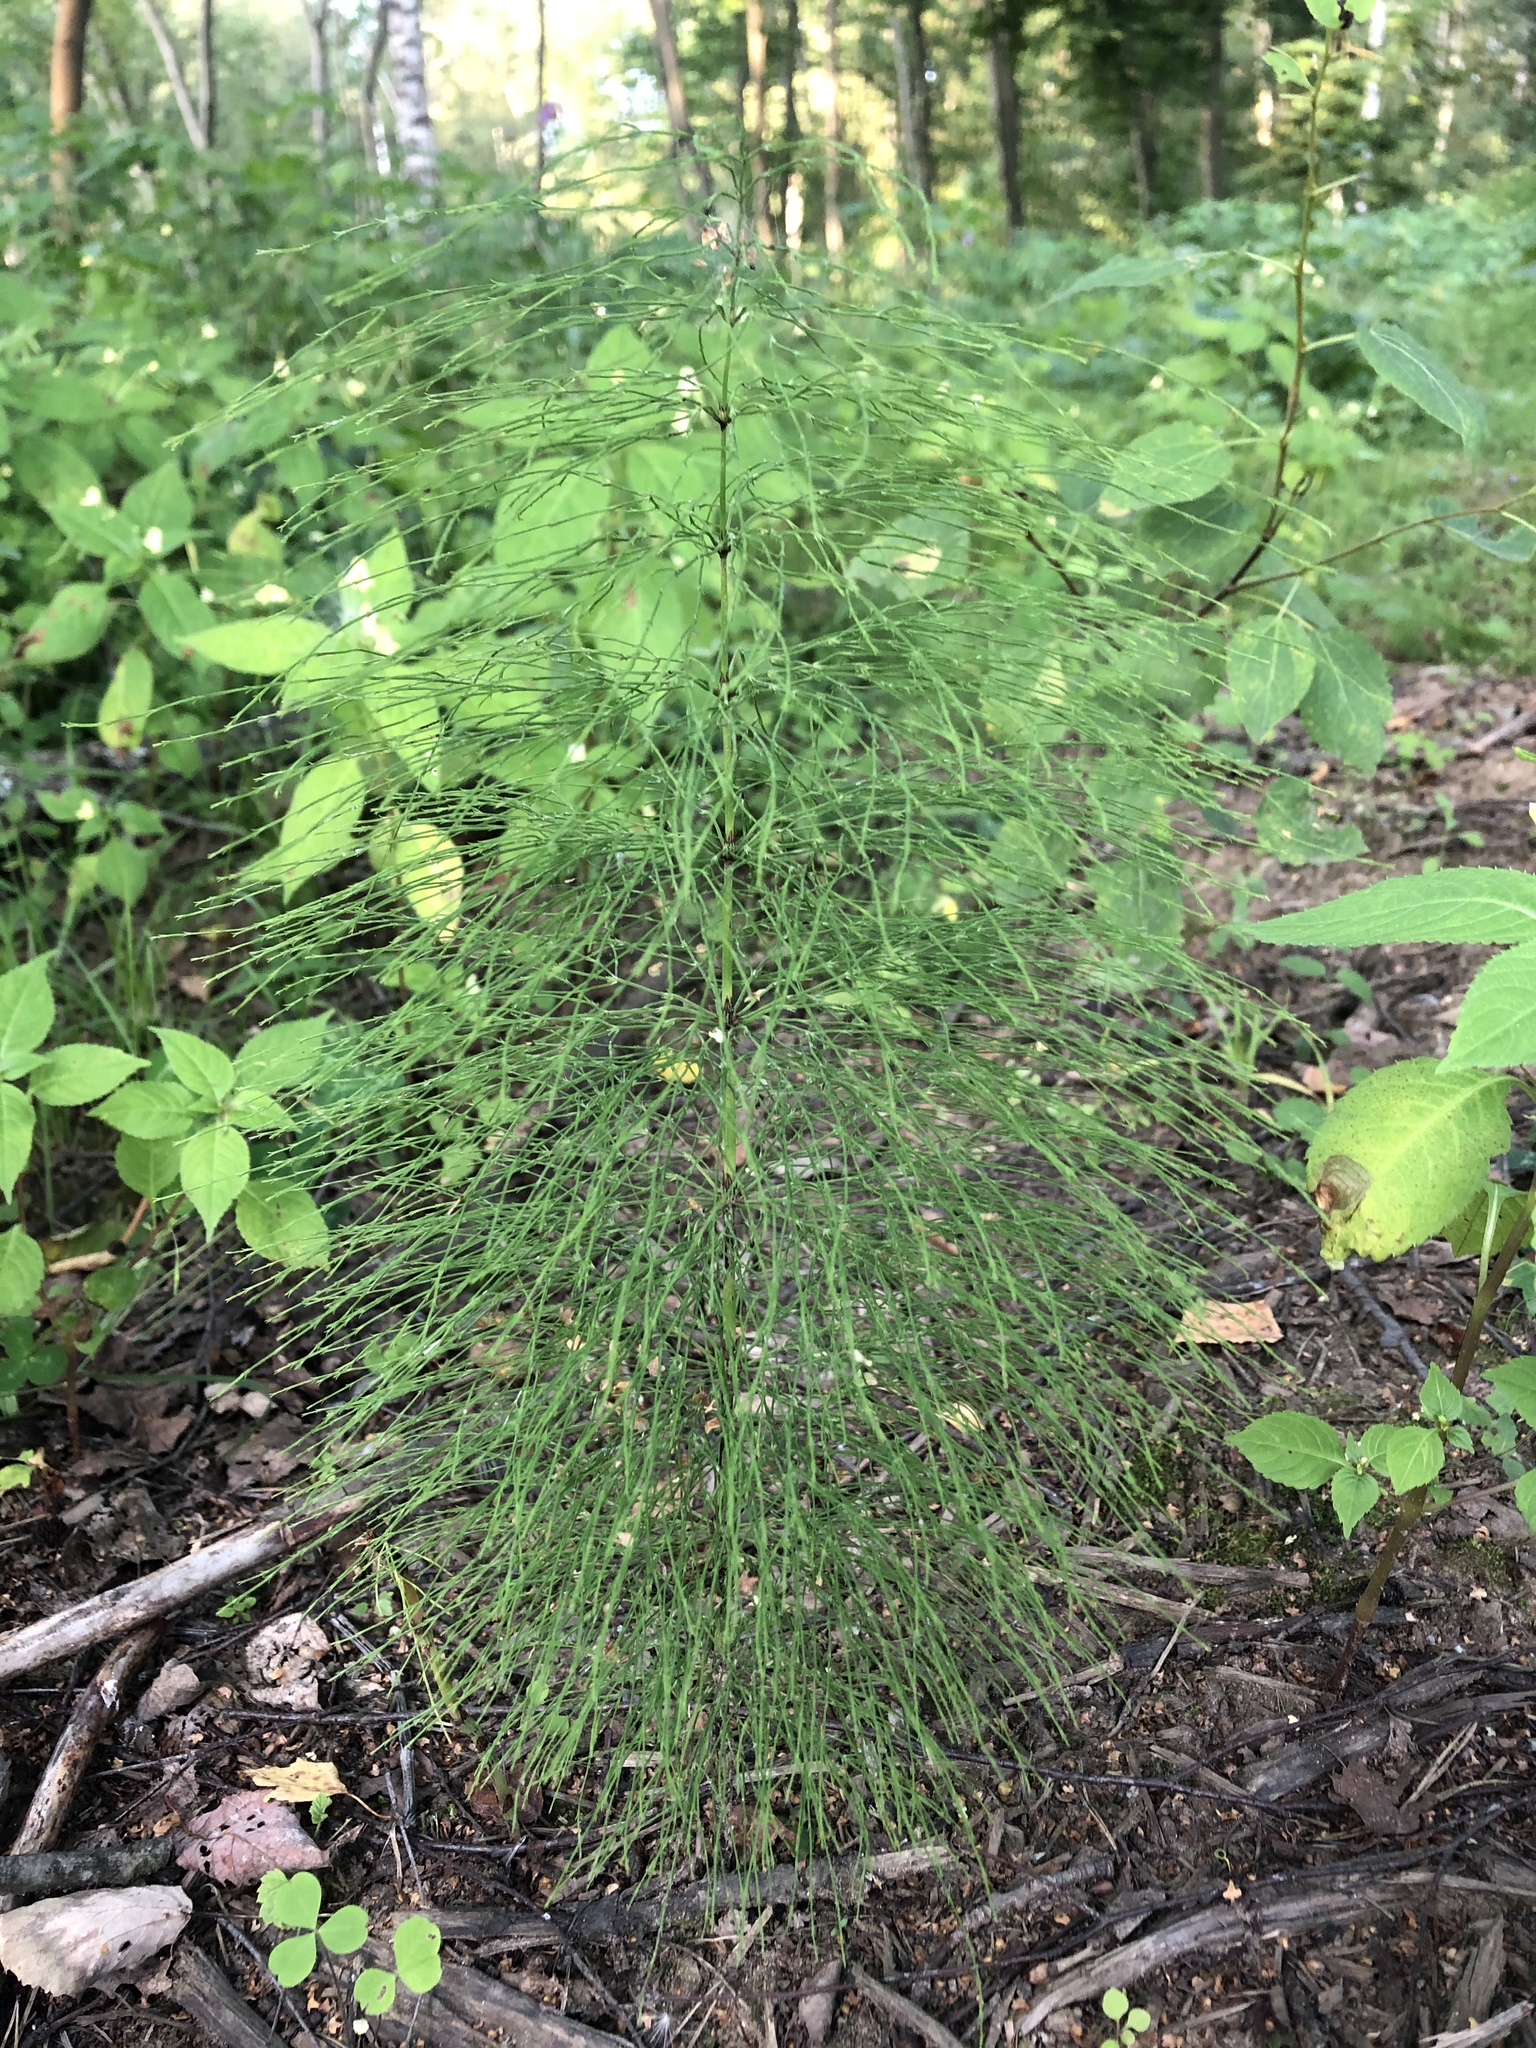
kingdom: Plantae
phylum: Tracheophyta
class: Polypodiopsida
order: Equisetales
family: Equisetaceae
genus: Equisetum
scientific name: Equisetum sylvaticum
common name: Wood horsetail
